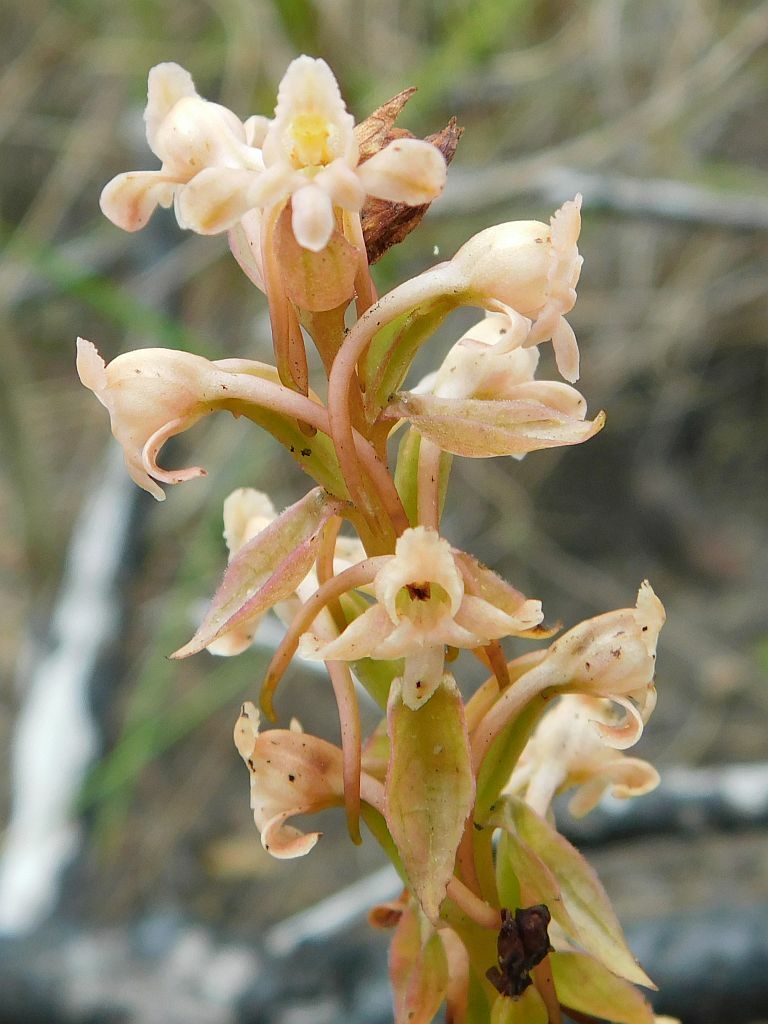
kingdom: Plantae
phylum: Tracheophyta
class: Liliopsida
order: Asparagales
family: Orchidaceae
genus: Satyrium
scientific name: Satyrium humile
